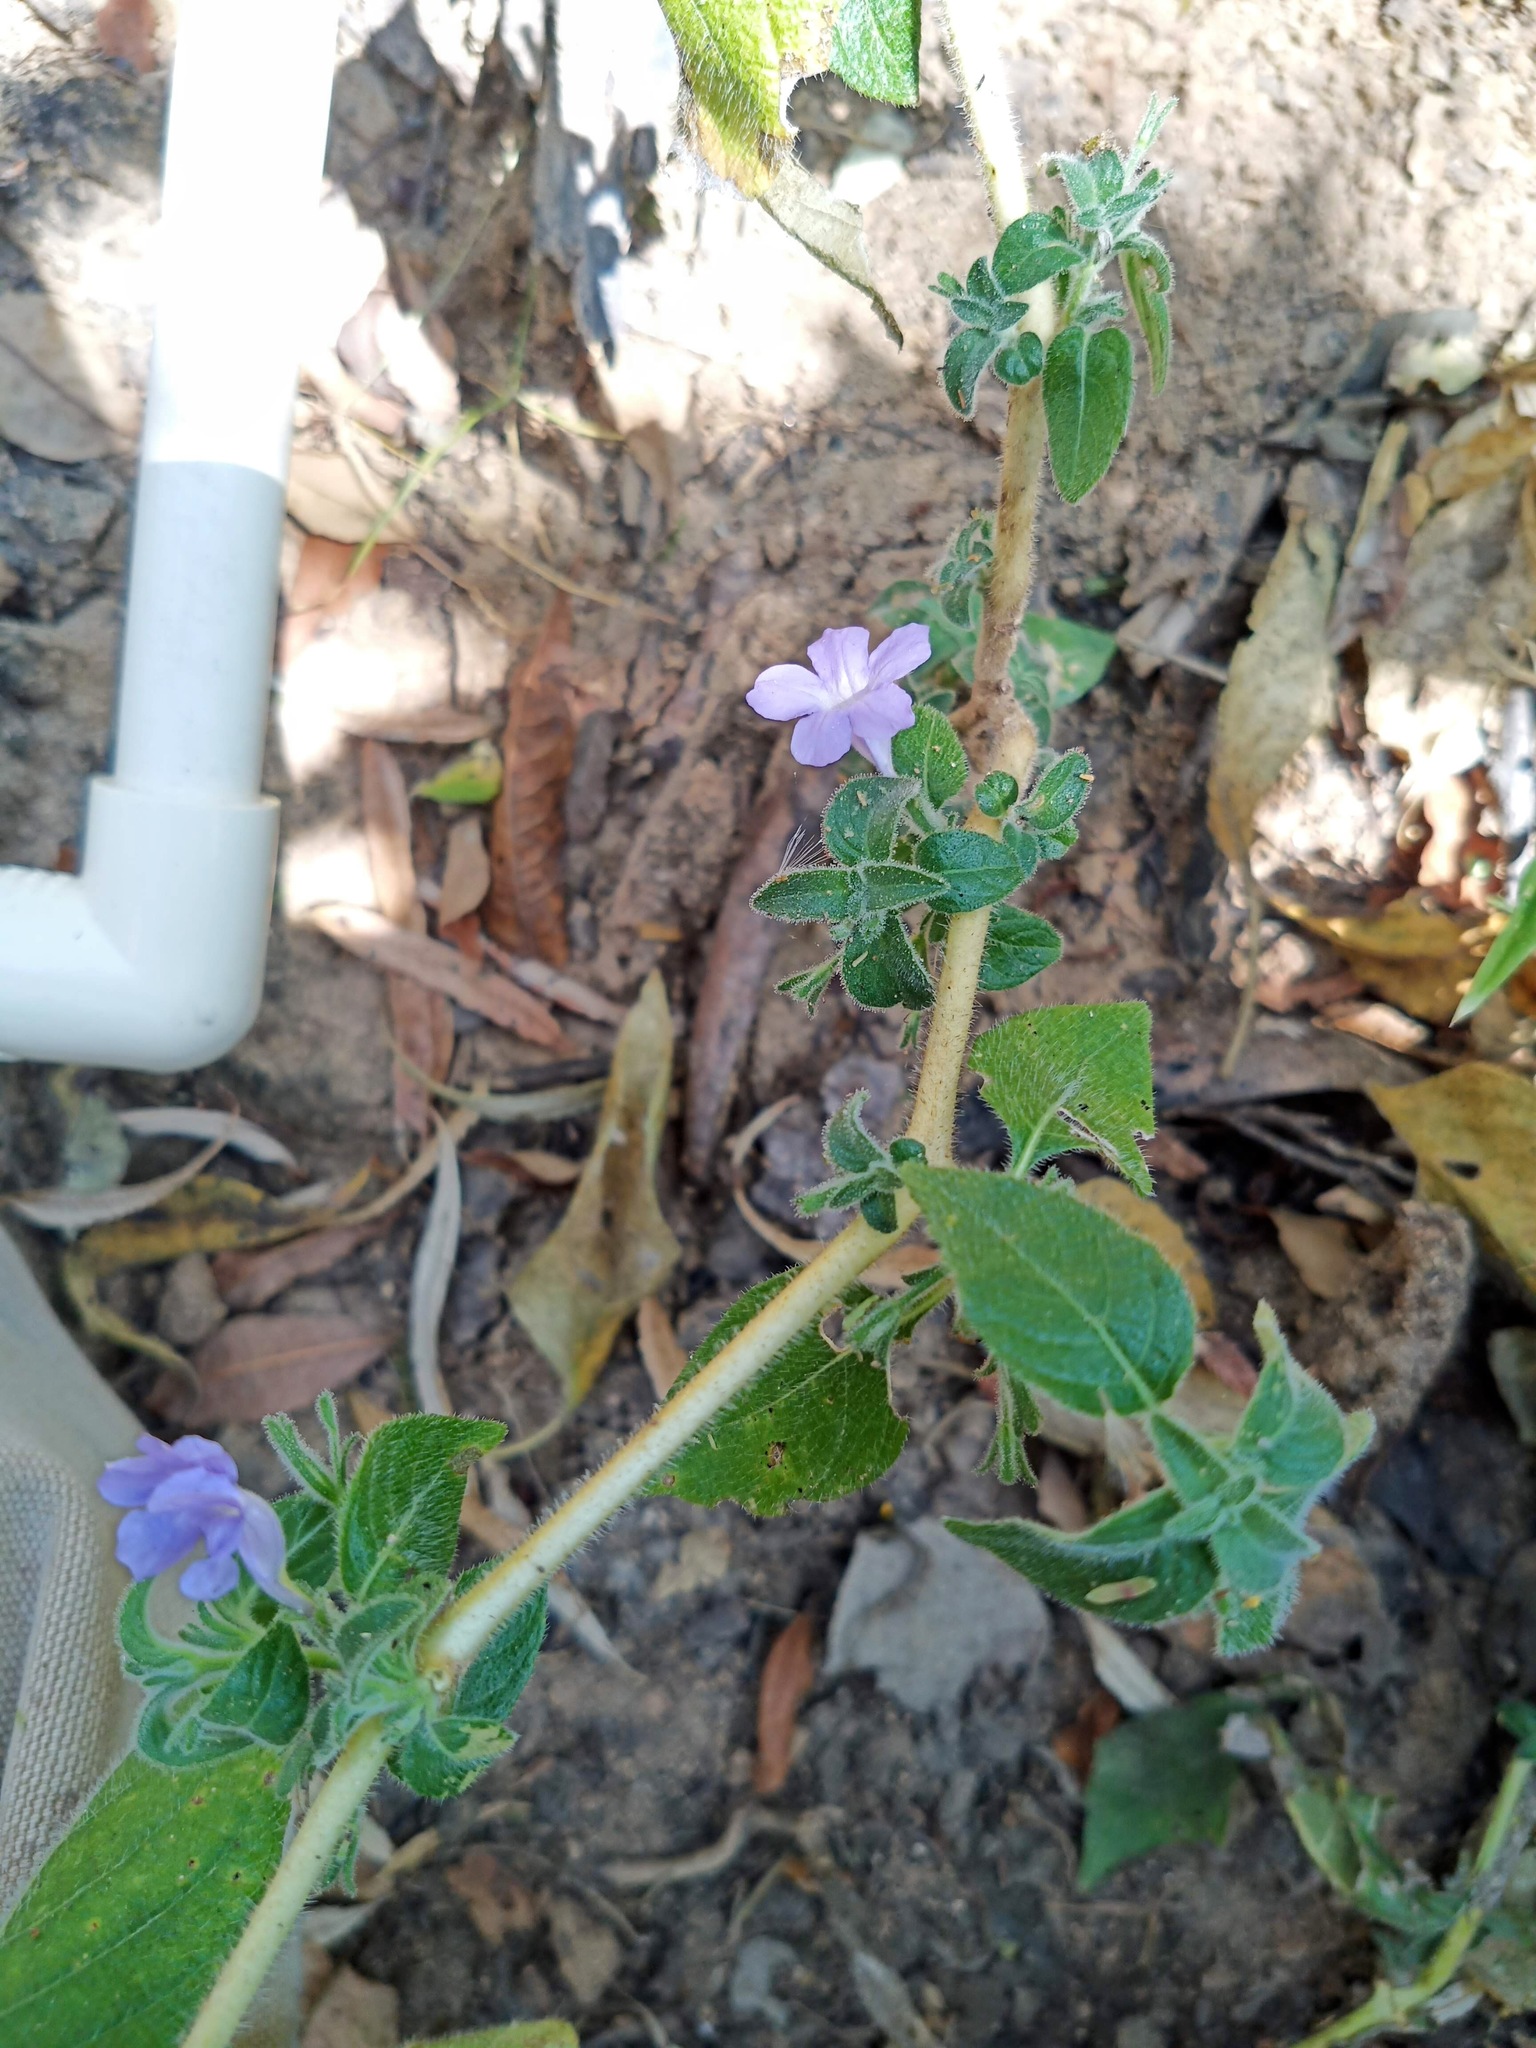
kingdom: Plantae
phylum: Tracheophyta
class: Magnoliopsida
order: Lamiales
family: Acanthaceae
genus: Ruellia
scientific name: Ruellia blechum
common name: Browne's blechum
